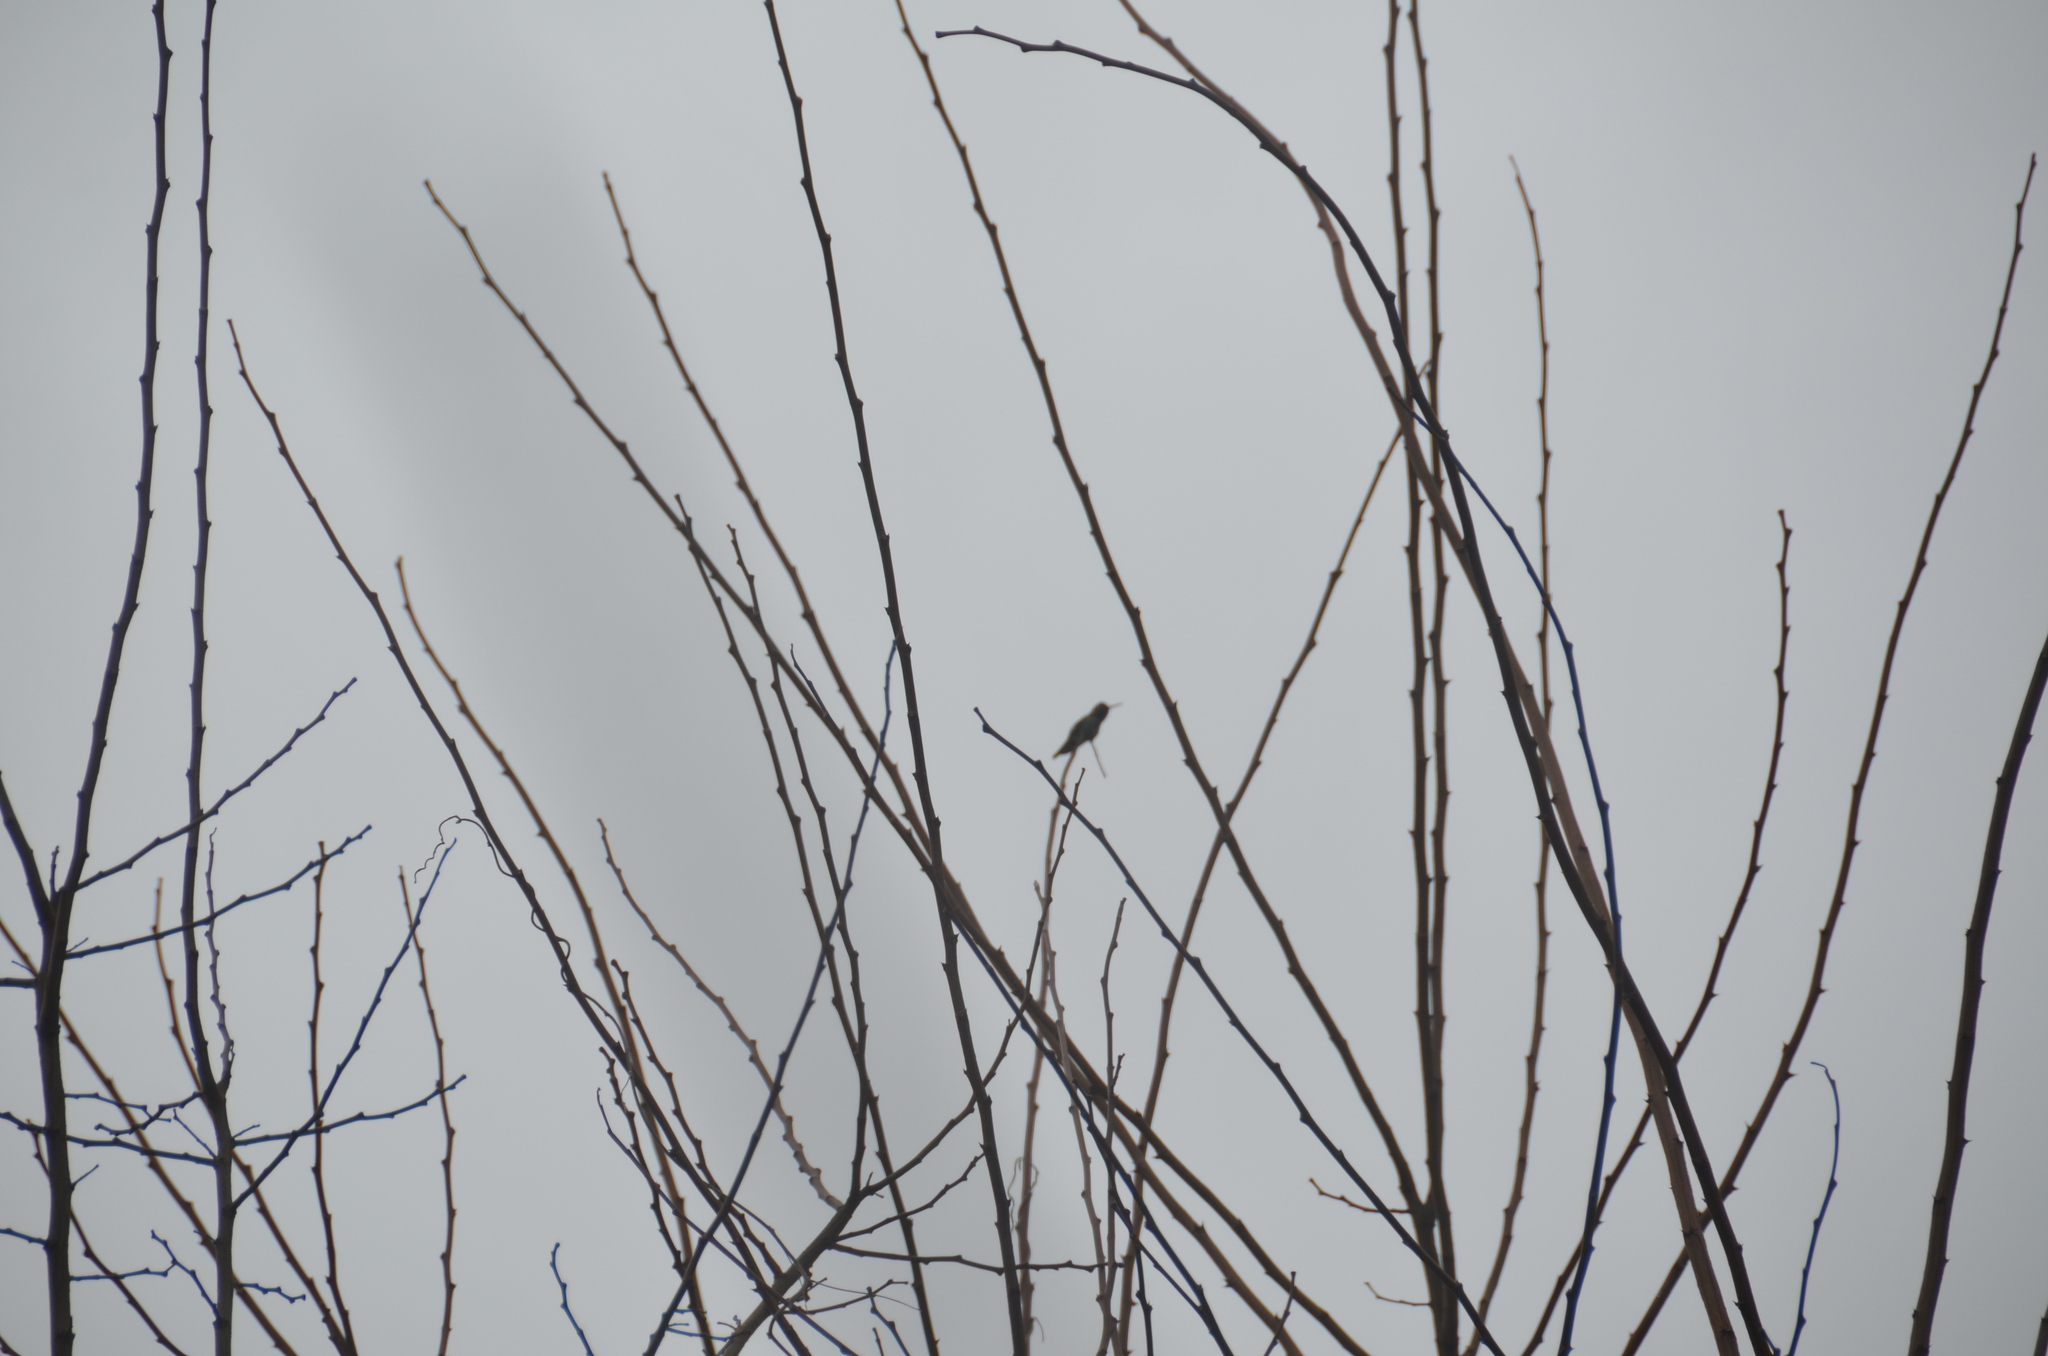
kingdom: Animalia
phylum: Chordata
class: Aves
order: Apodiformes
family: Trochilidae
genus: Calypte
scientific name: Calypte anna
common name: Anna's hummingbird
